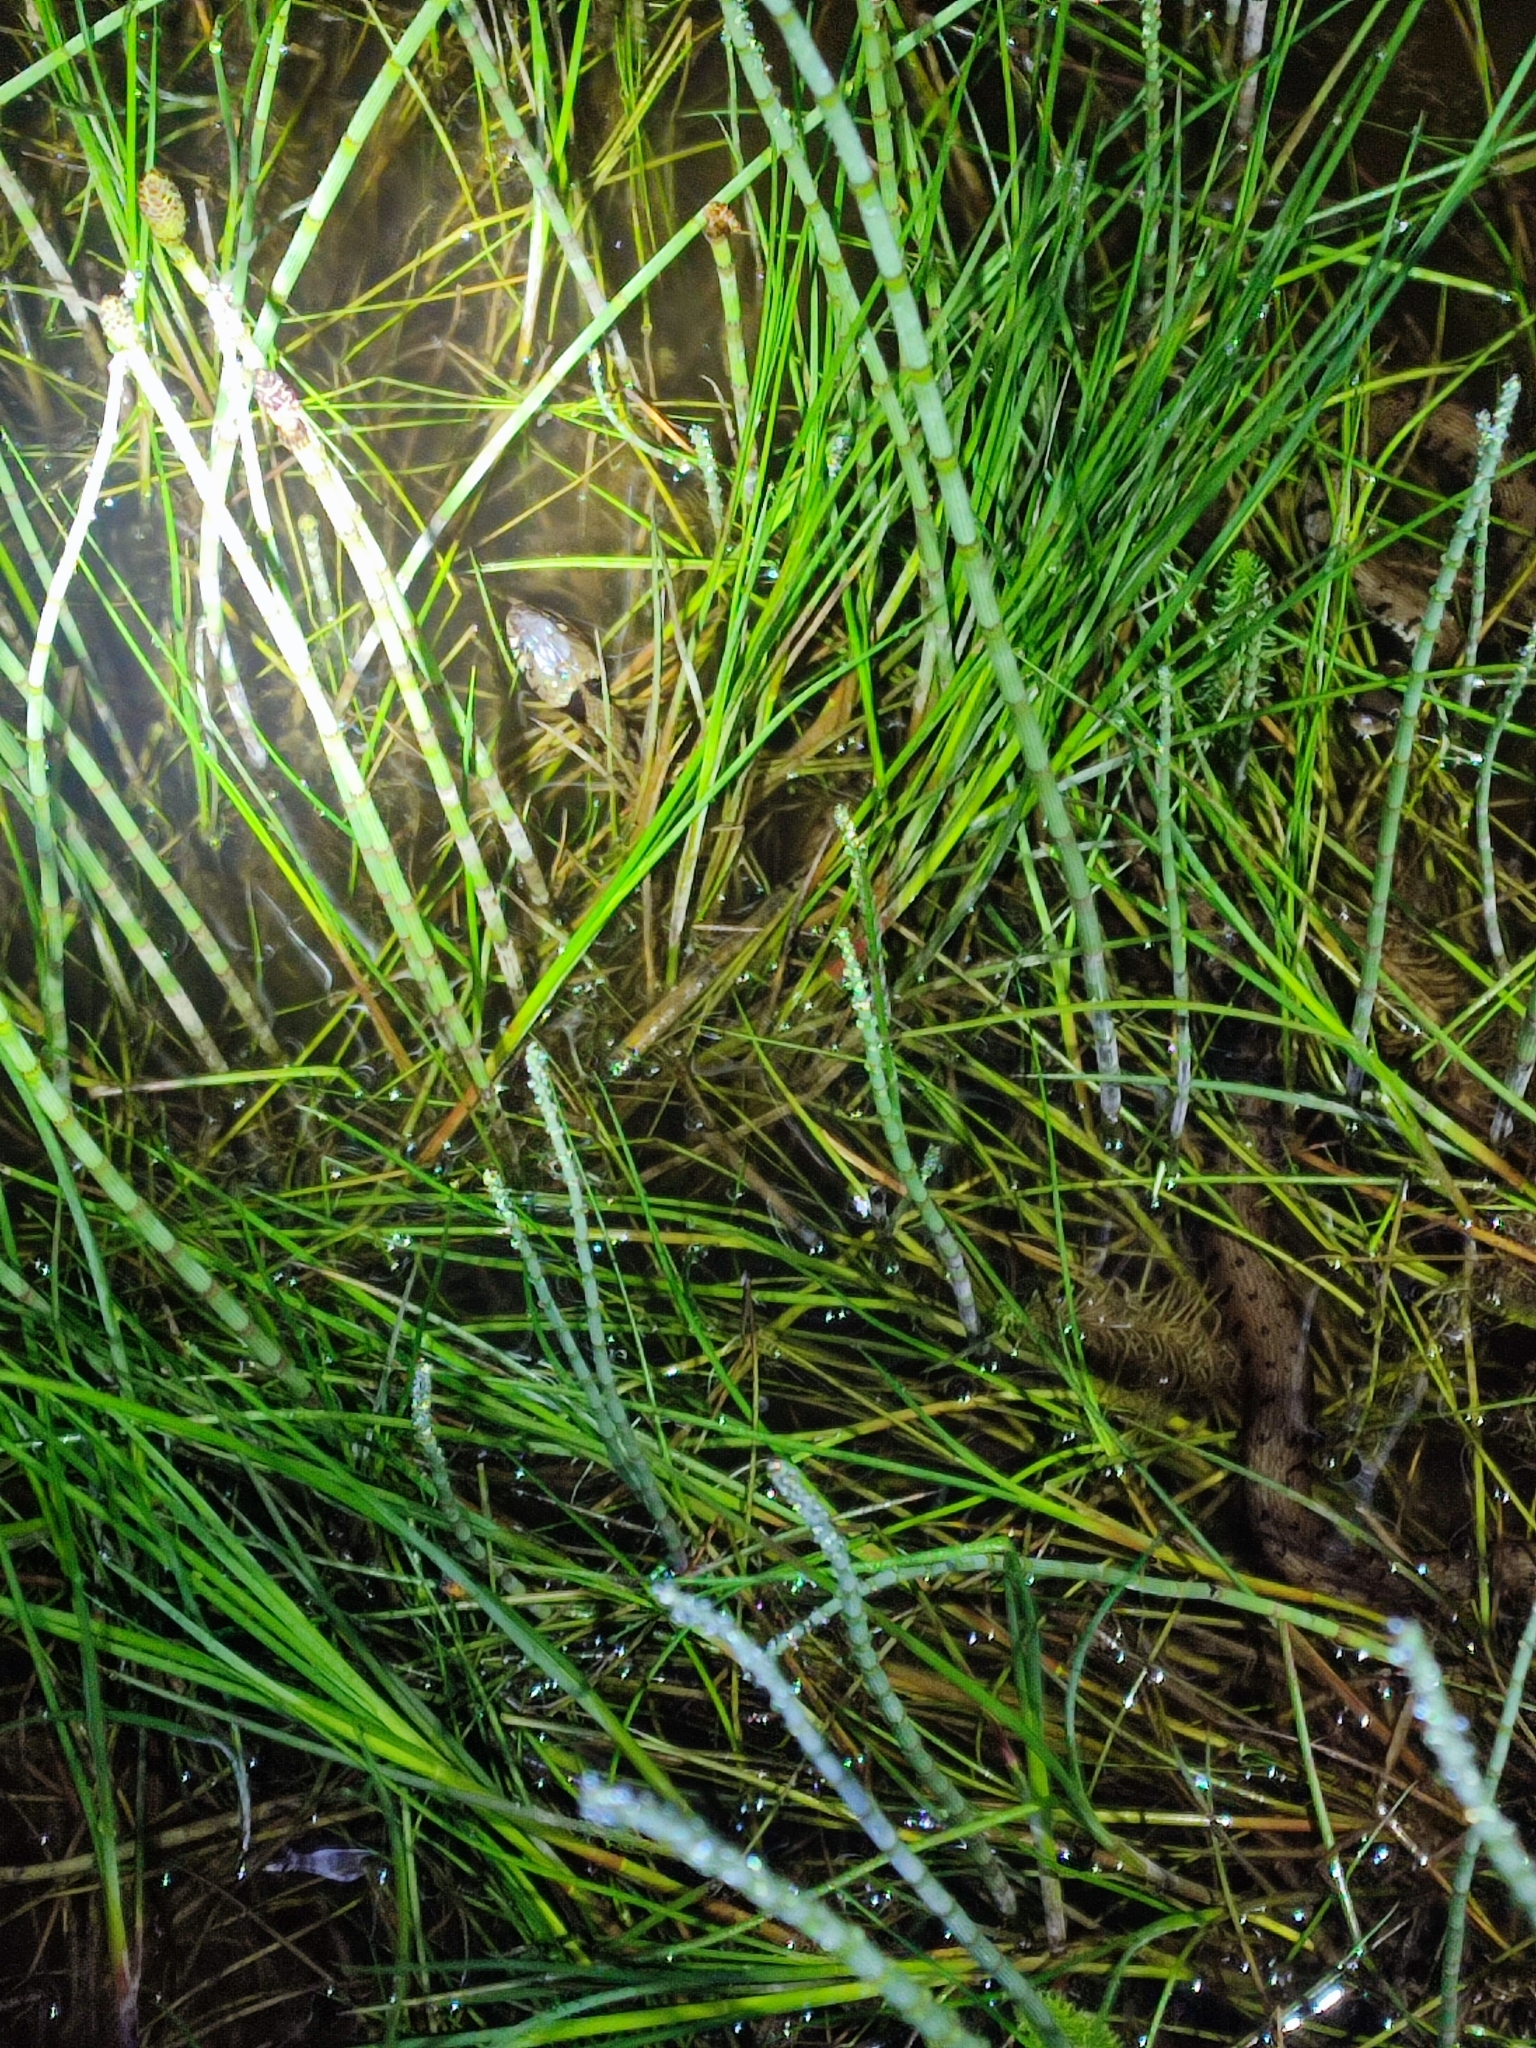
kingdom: Animalia
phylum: Chordata
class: Squamata
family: Colubridae
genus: Natrix
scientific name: Natrix helvetica
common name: Banded grass snake
